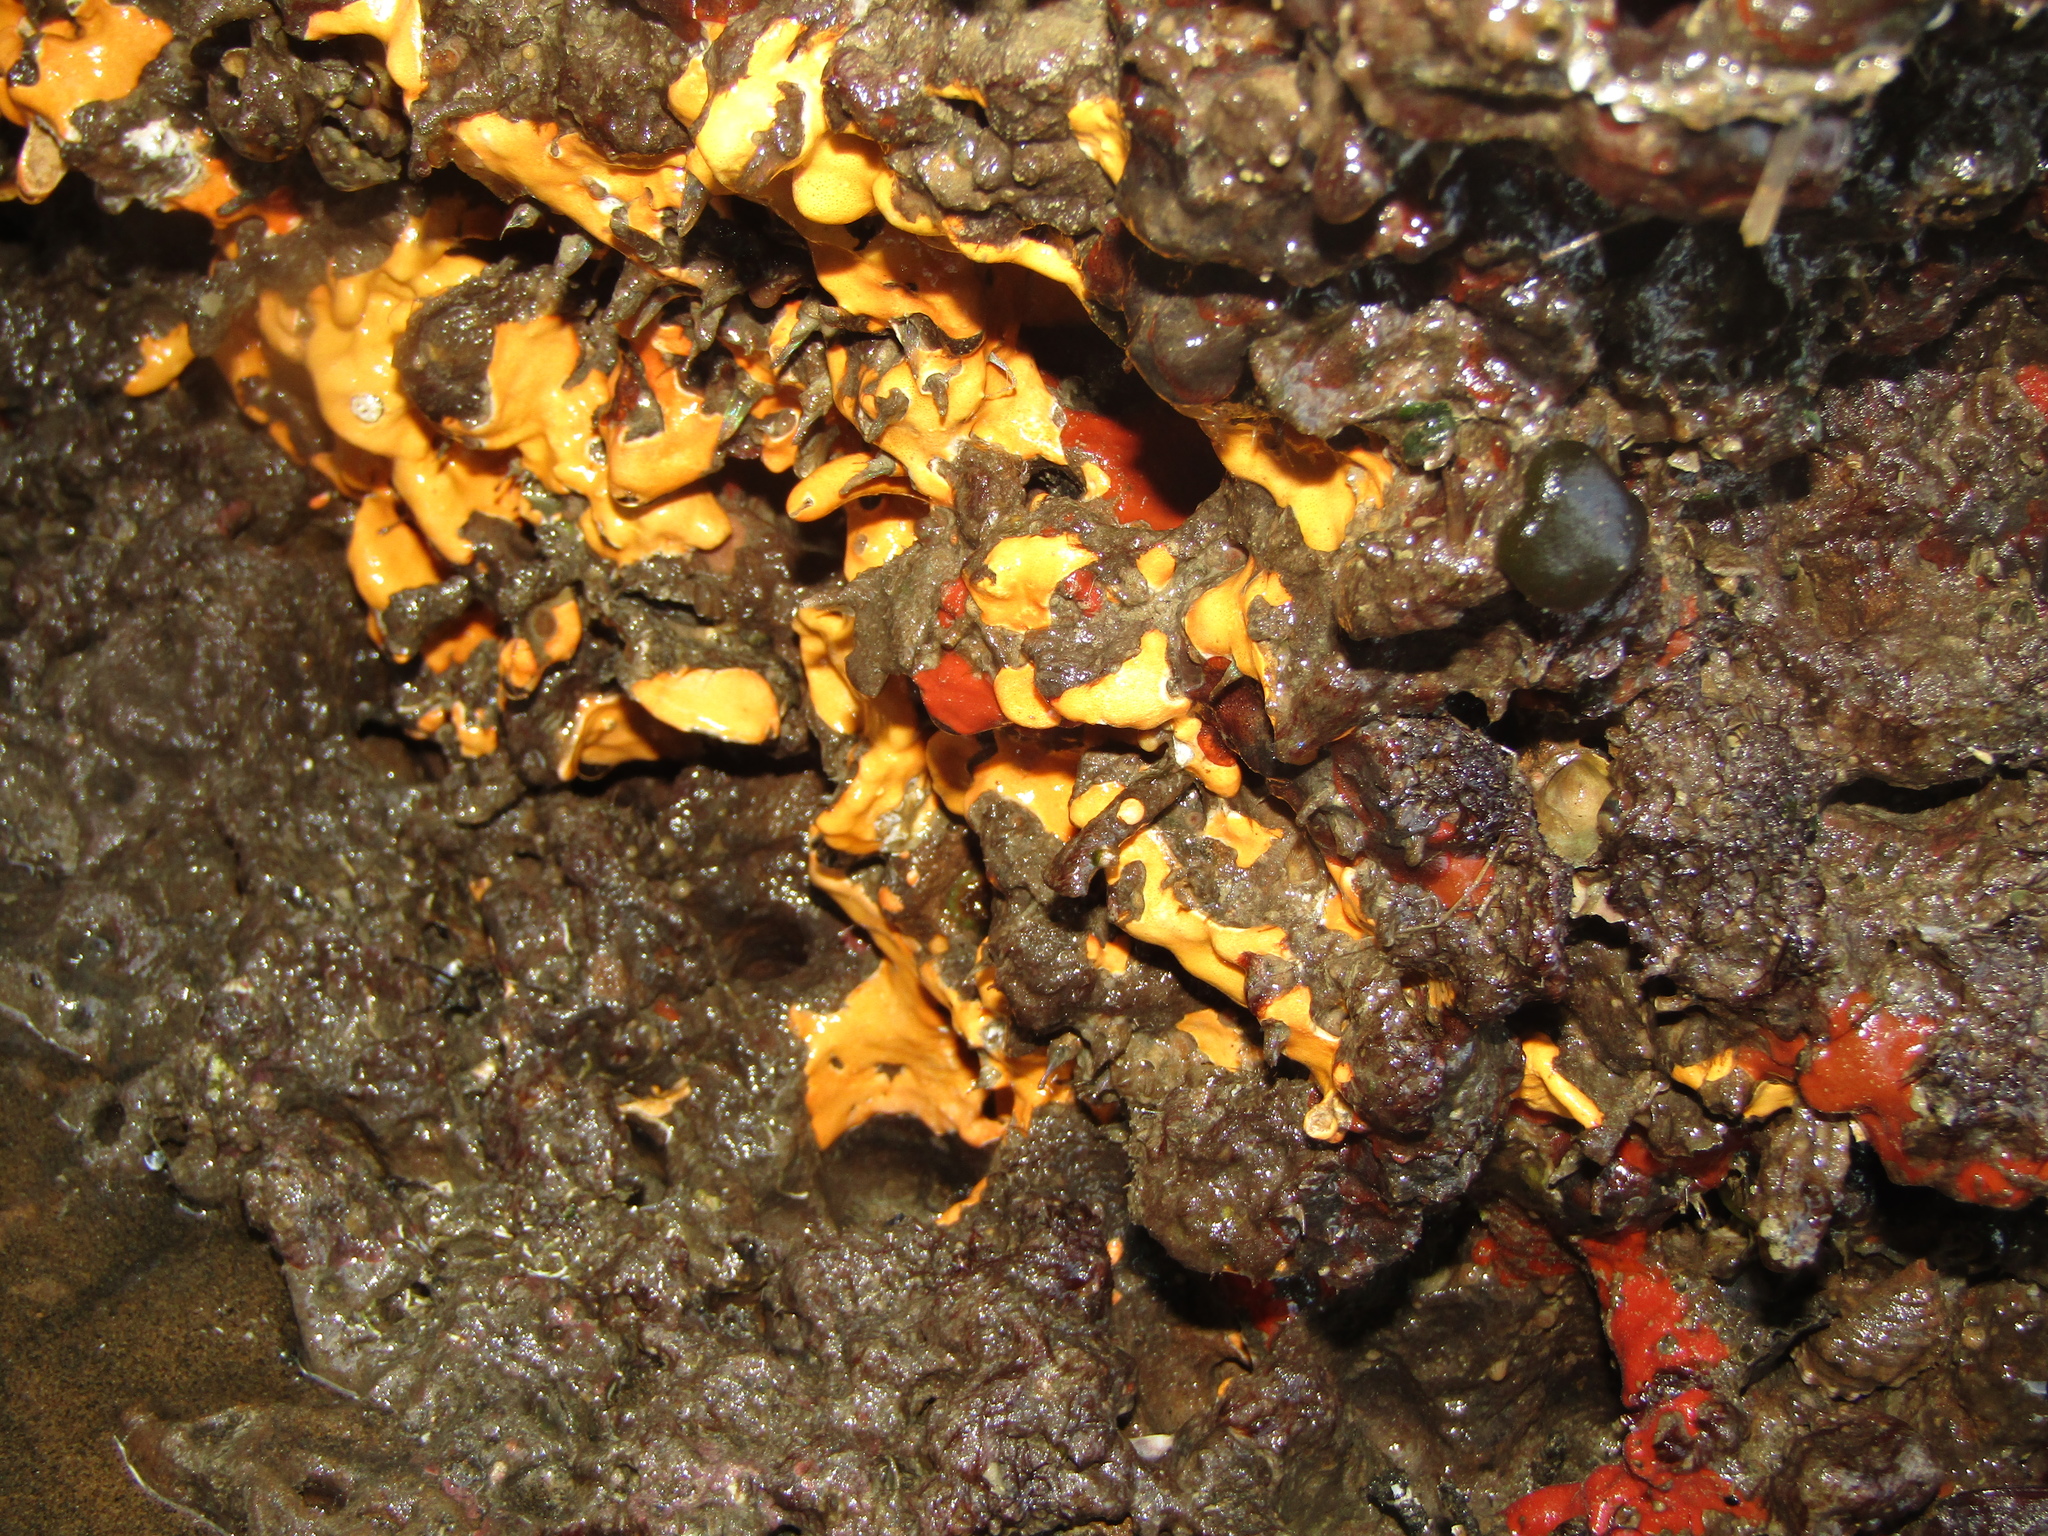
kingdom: Animalia
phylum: Mollusca
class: Gastropoda
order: Littorinimorpha
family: Cymatiidae
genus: Cabestana
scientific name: Cabestana spengleri
